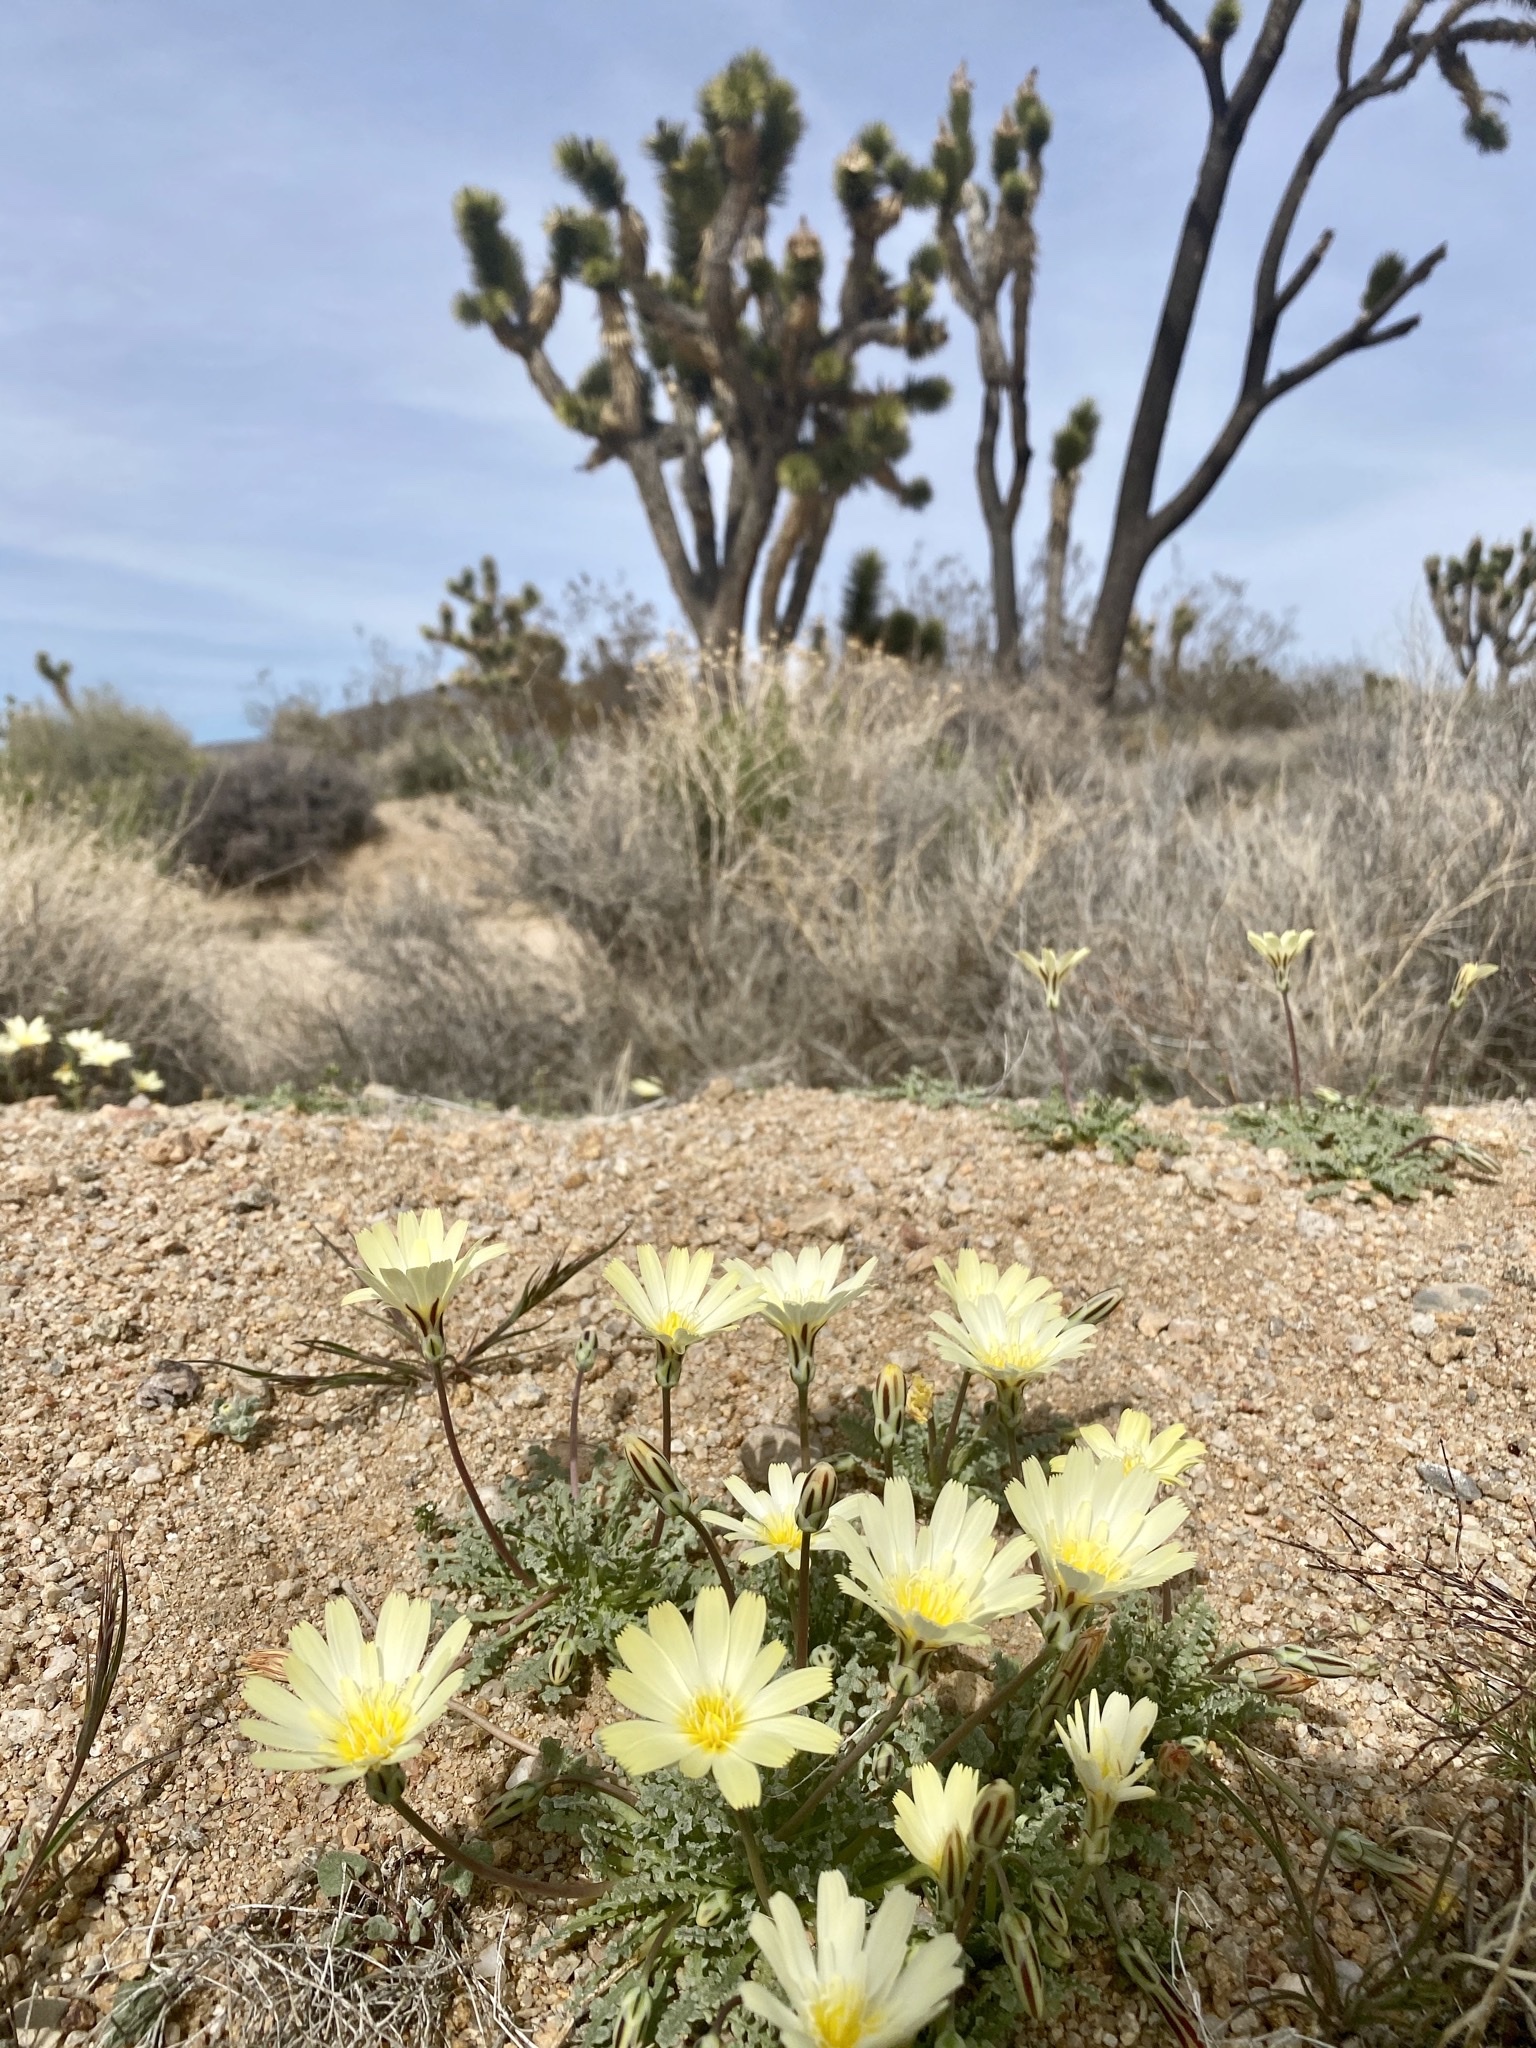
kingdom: Plantae
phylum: Tracheophyta
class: Magnoliopsida
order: Asterales
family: Asteraceae
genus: Anisocoma
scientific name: Anisocoma acaulis
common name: Scalebud
